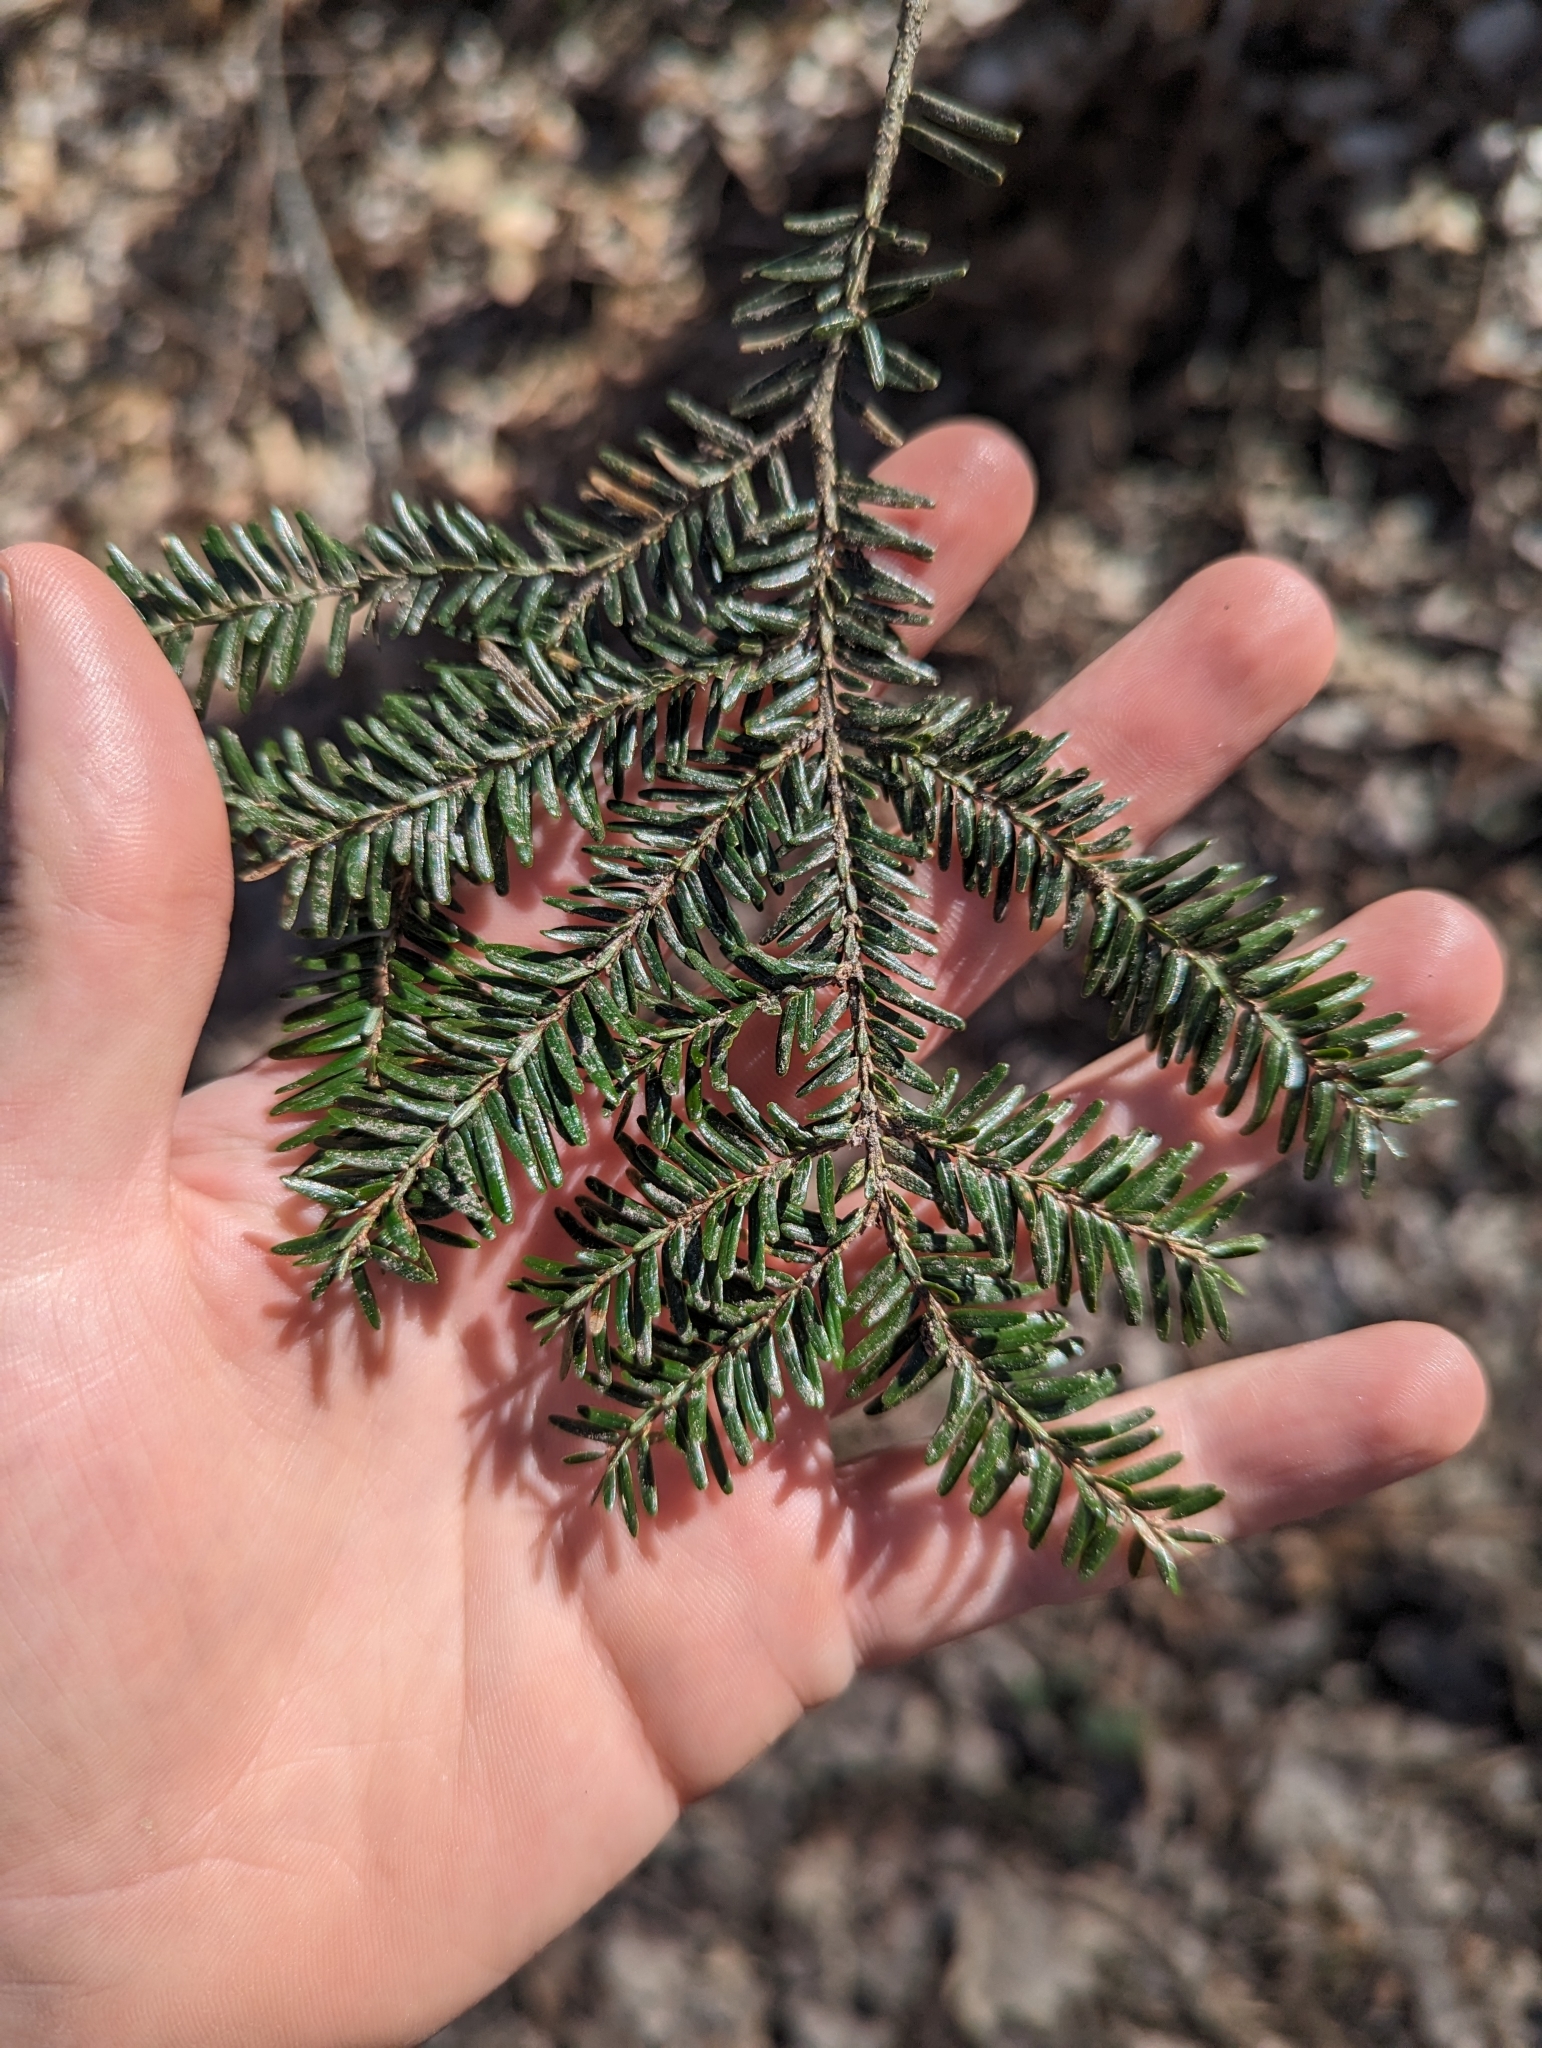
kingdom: Plantae
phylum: Tracheophyta
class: Pinopsida
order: Pinales
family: Pinaceae
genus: Tsuga
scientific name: Tsuga canadensis
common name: Eastern hemlock
